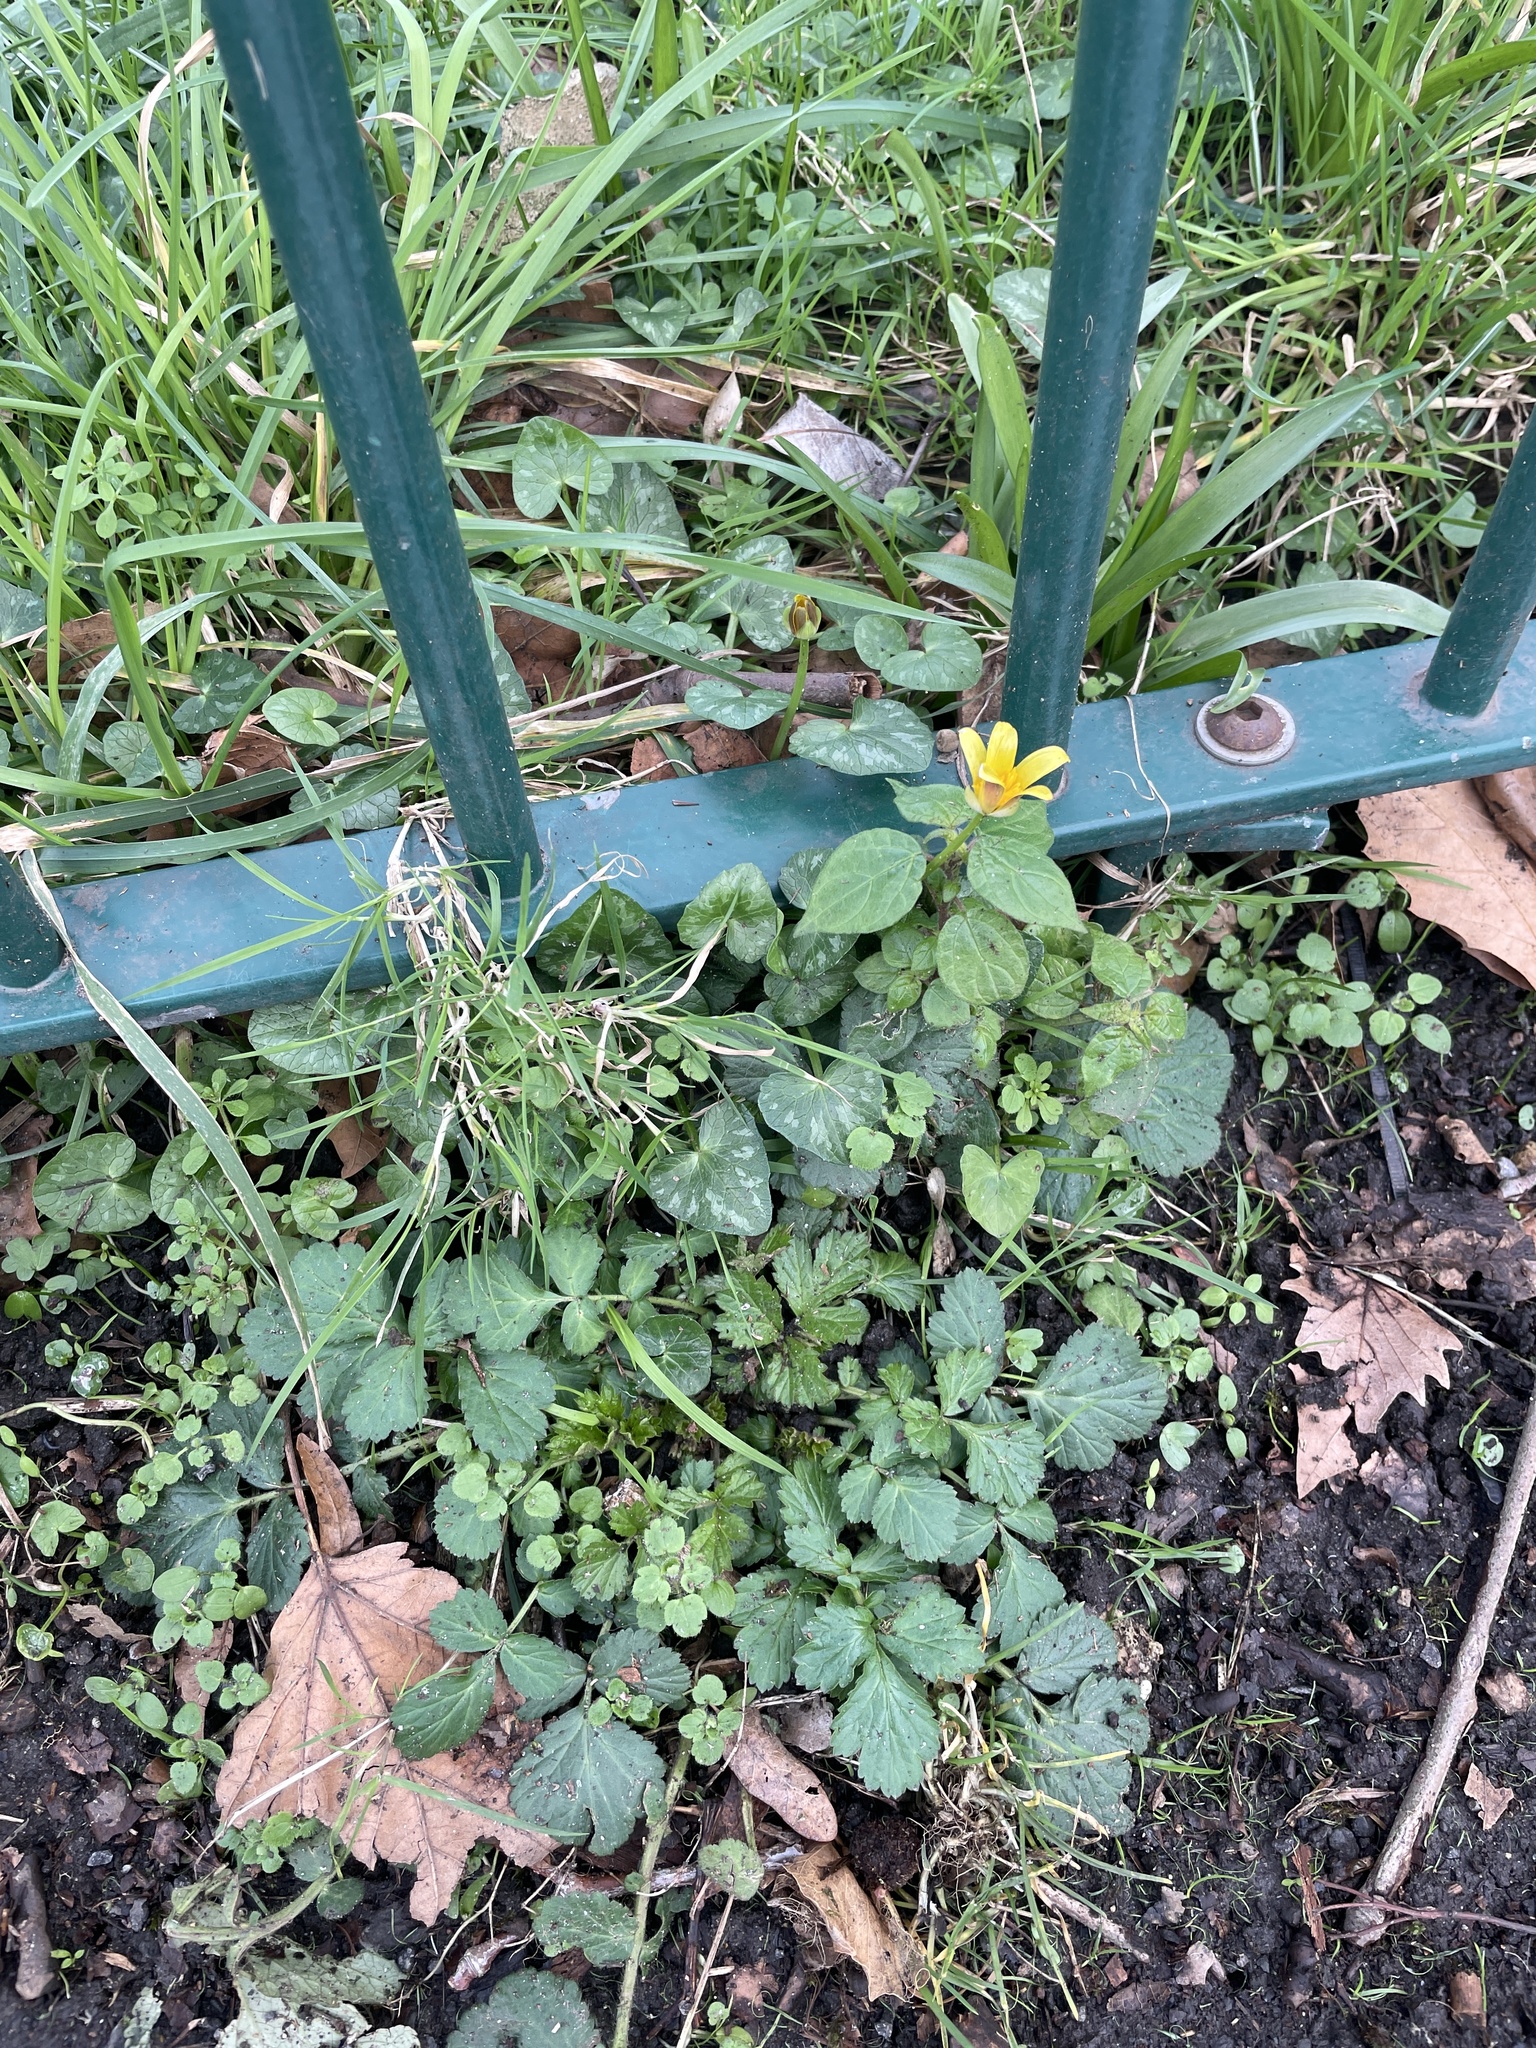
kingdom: Plantae
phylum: Tracheophyta
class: Magnoliopsida
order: Ranunculales
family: Ranunculaceae
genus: Ficaria
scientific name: Ficaria verna
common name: Lesser celandine
